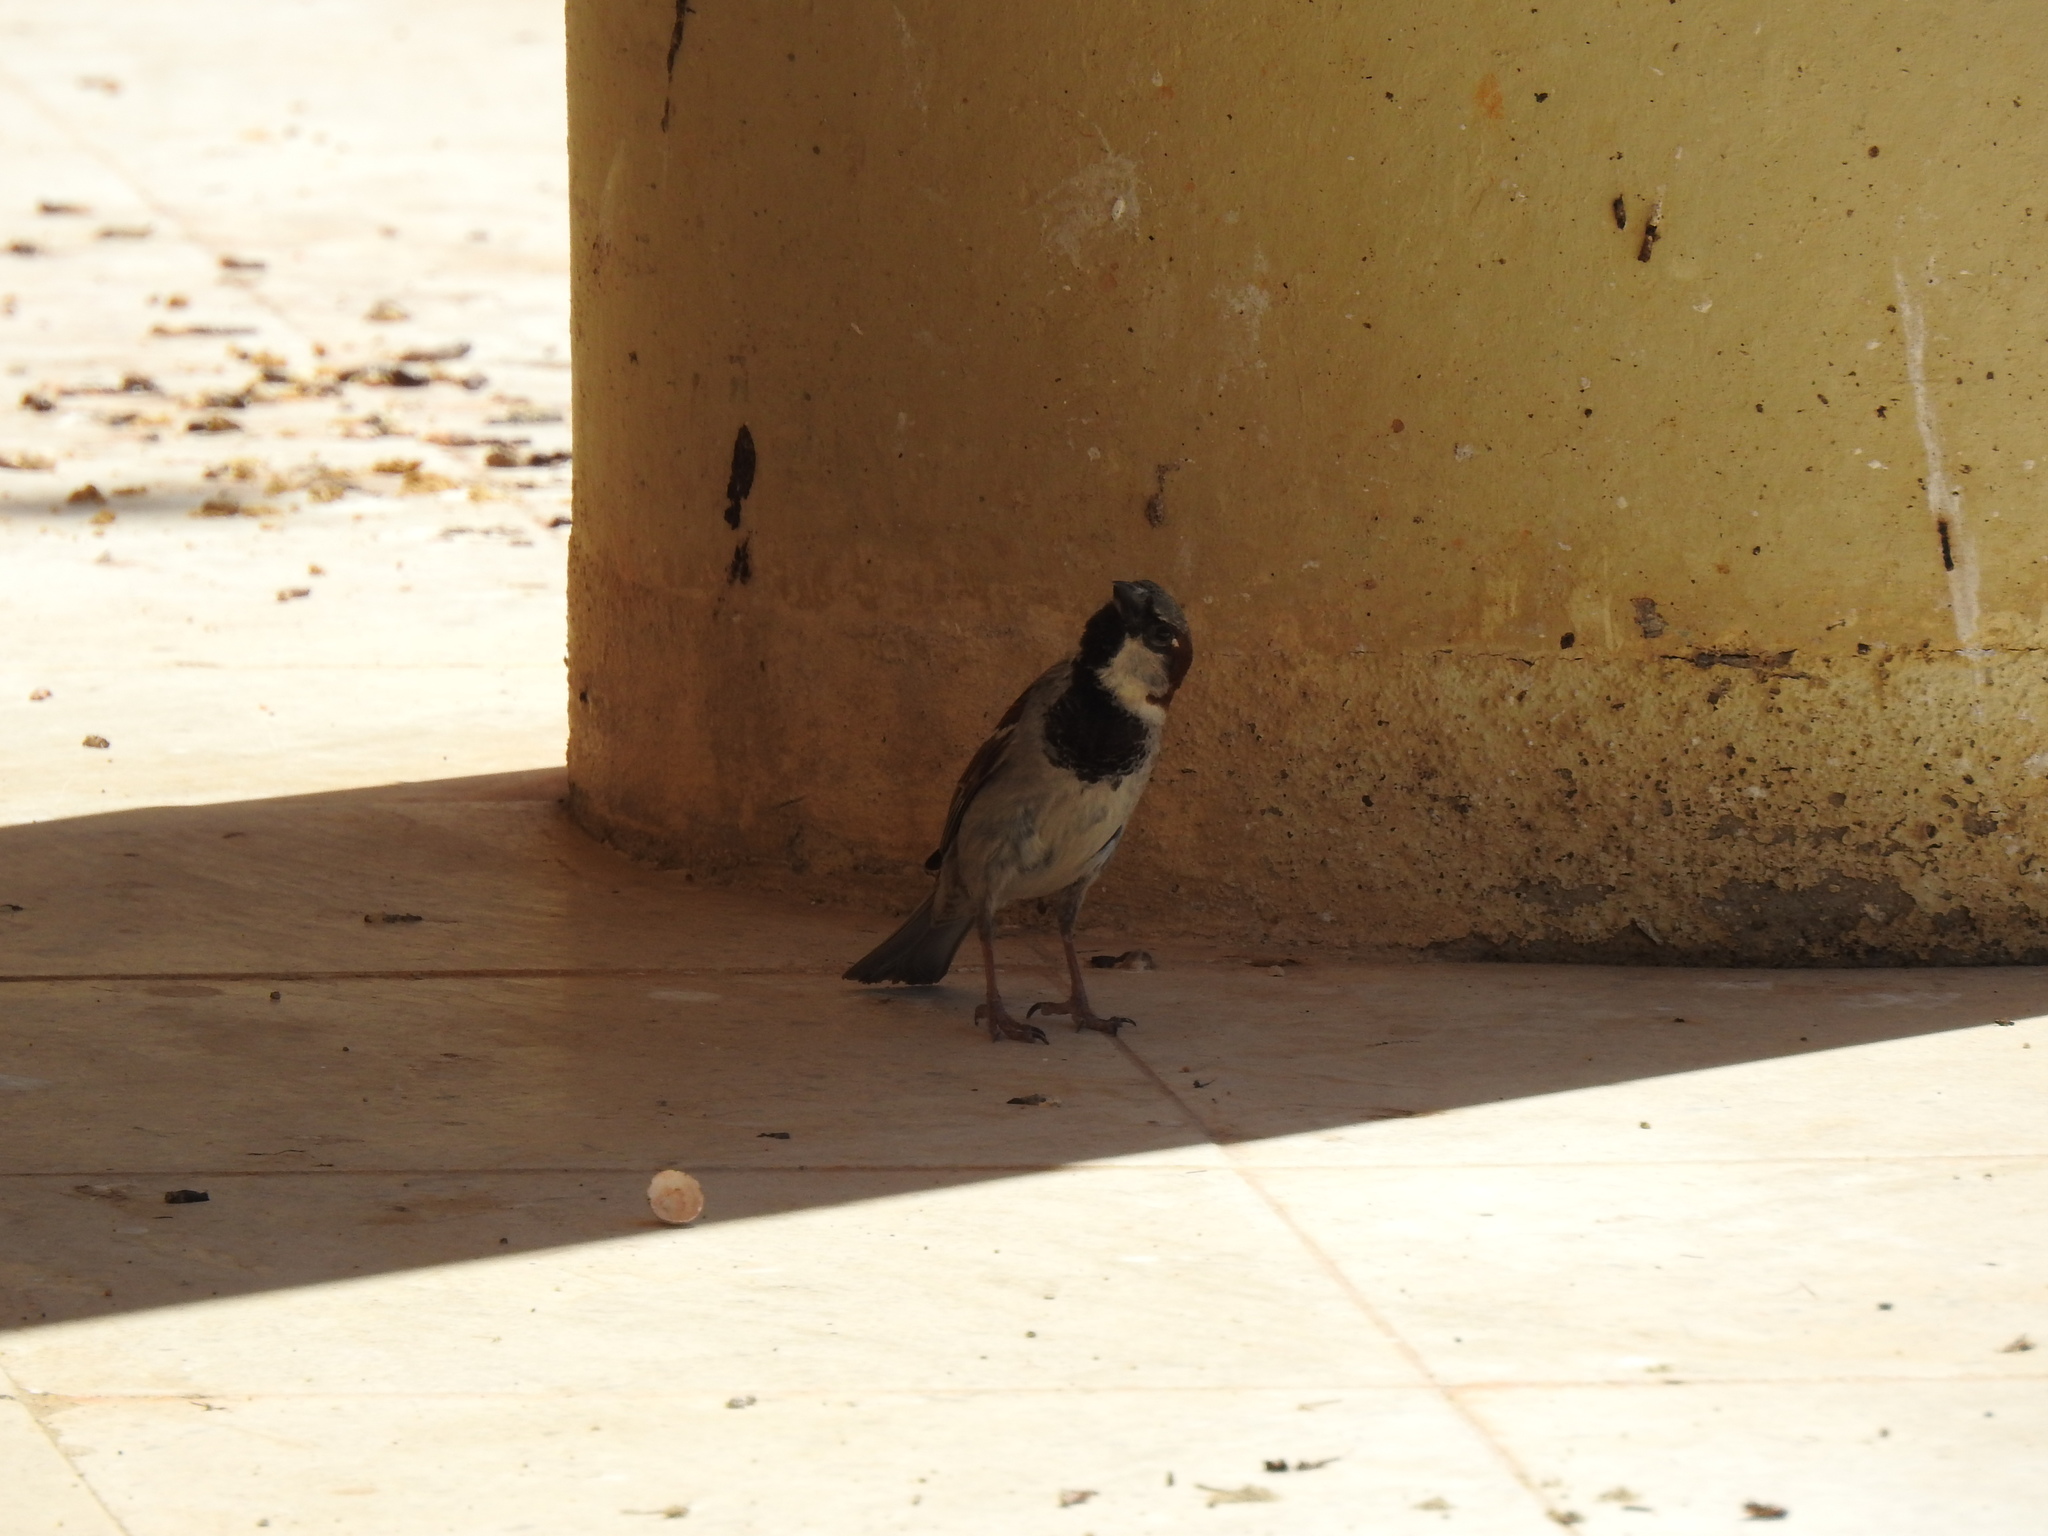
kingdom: Animalia
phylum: Chordata
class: Aves
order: Passeriformes
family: Passeridae
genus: Passer
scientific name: Passer domesticus
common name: House sparrow
